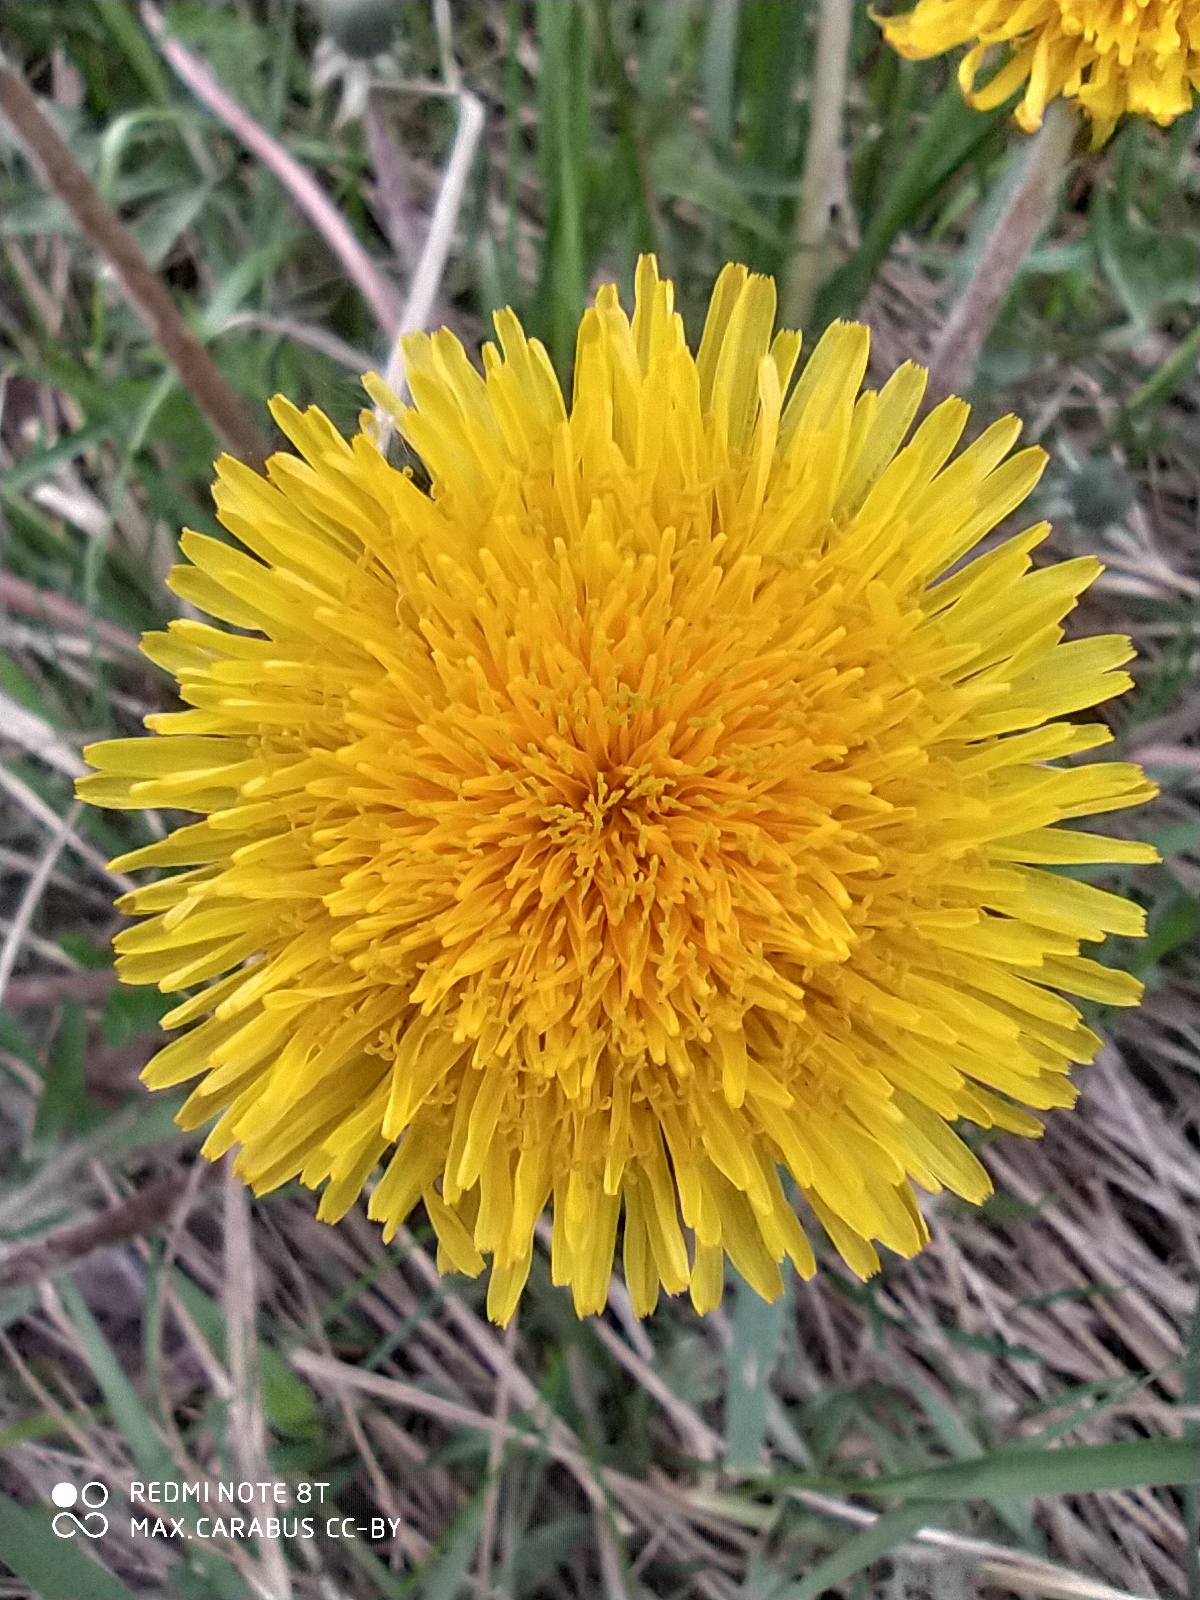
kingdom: Plantae
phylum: Tracheophyta
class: Magnoliopsida
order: Asterales
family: Asteraceae
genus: Taraxacum
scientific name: Taraxacum officinale
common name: Common dandelion
